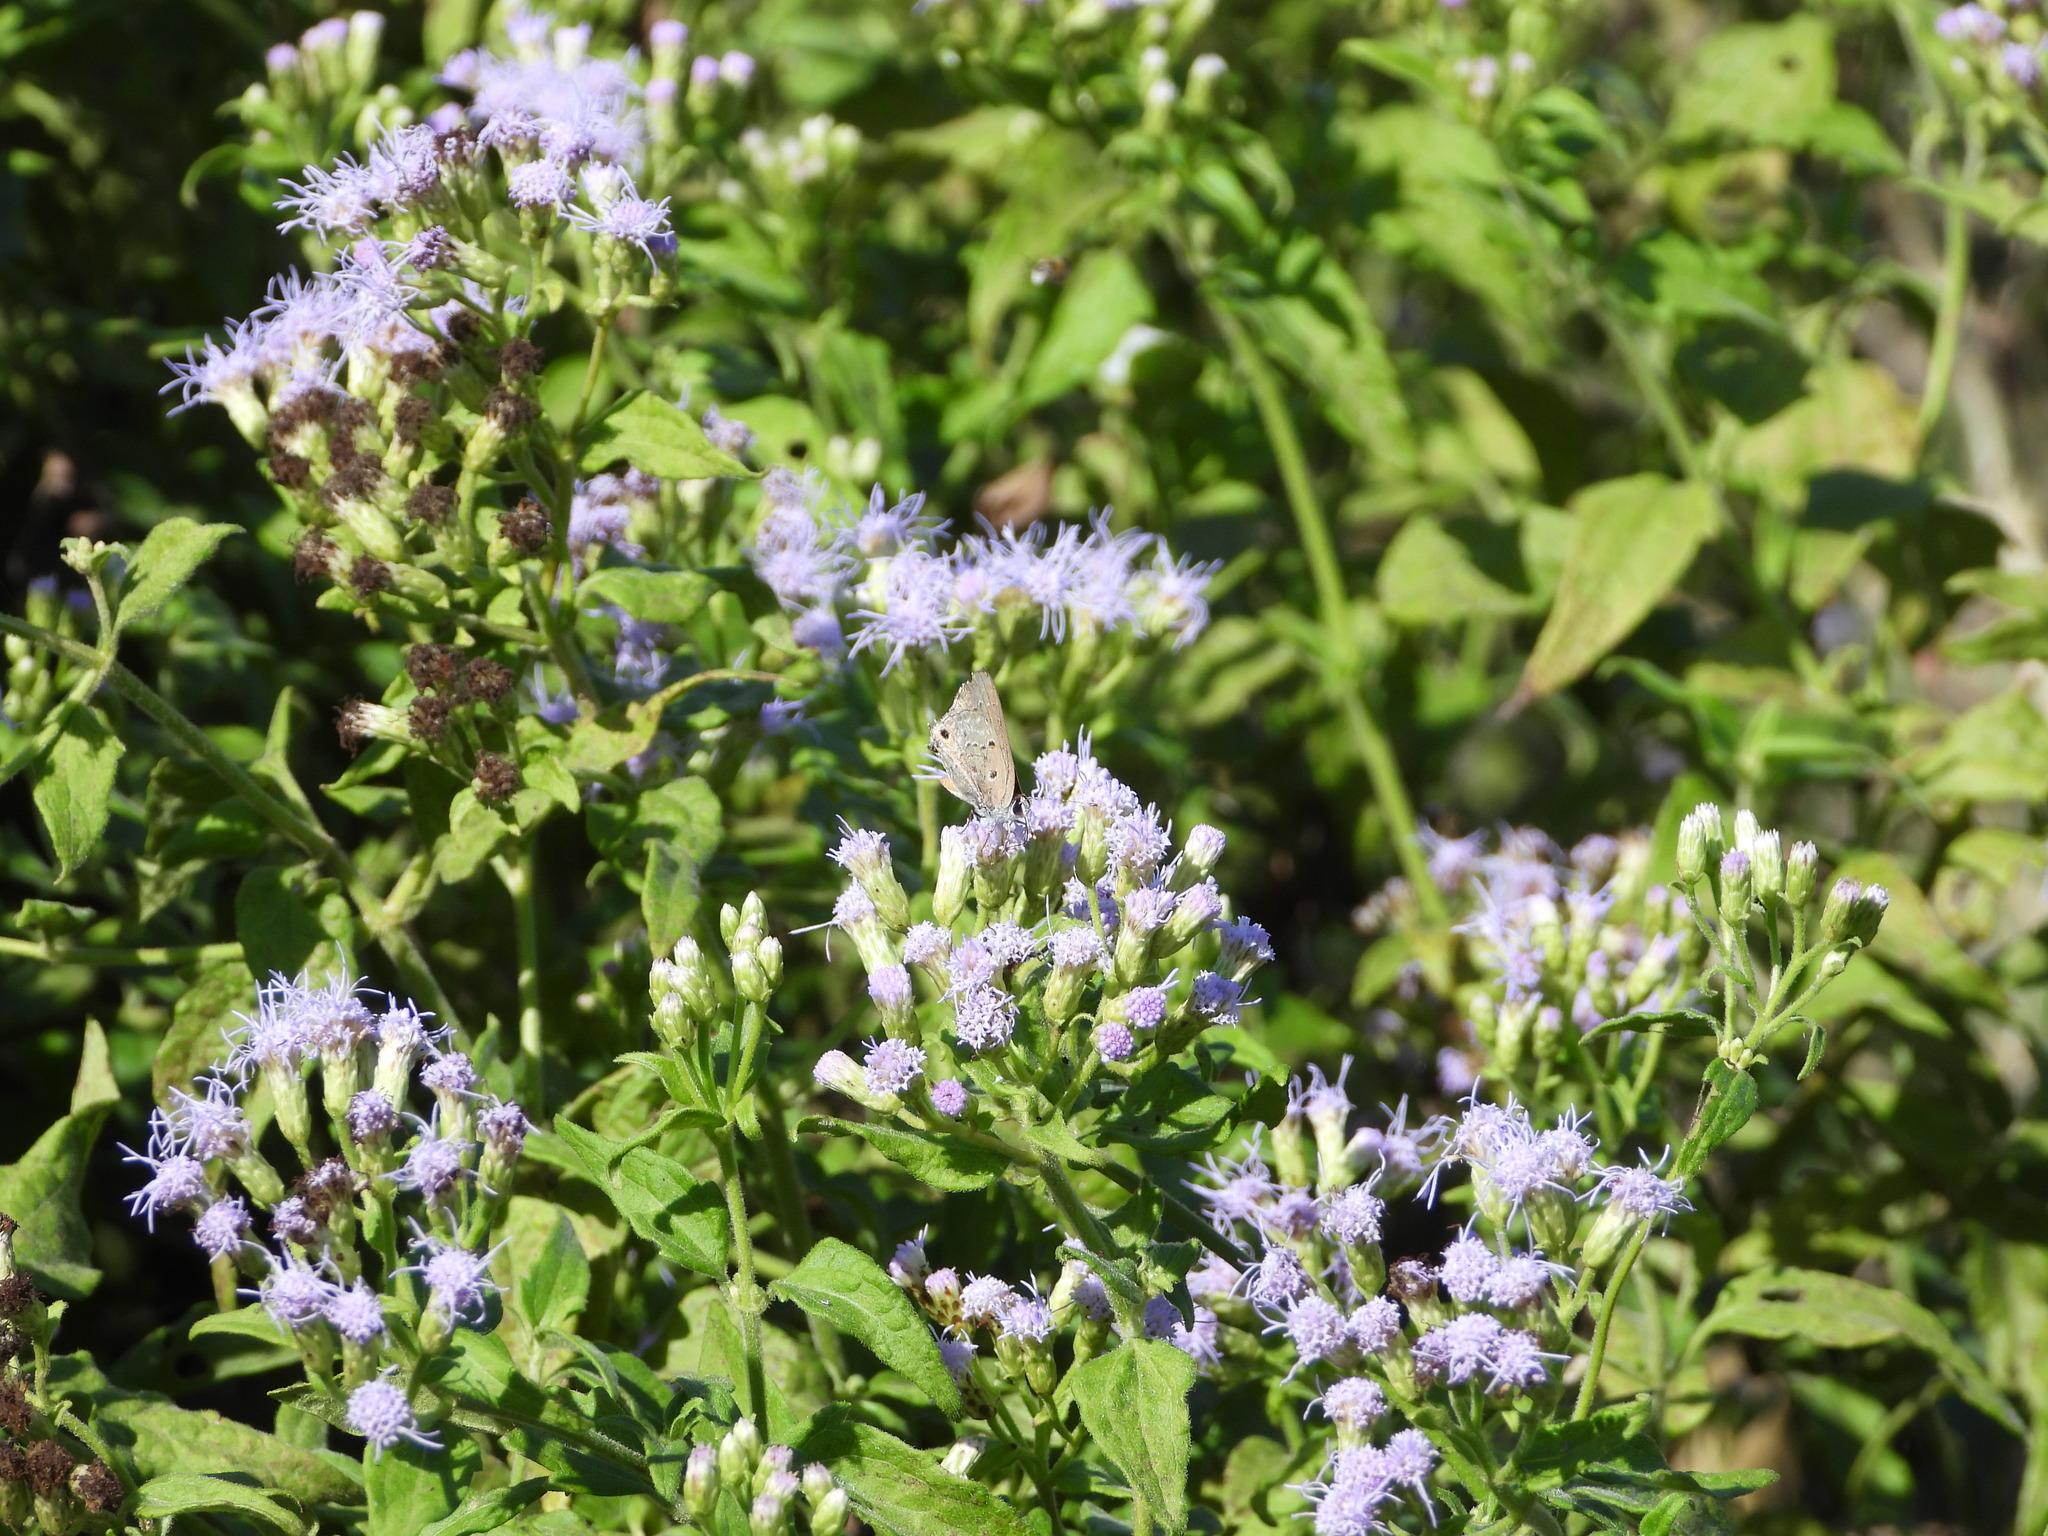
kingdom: Animalia
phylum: Arthropoda
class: Insecta
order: Lepidoptera
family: Lycaenidae
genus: Callicista
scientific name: Callicista columella
